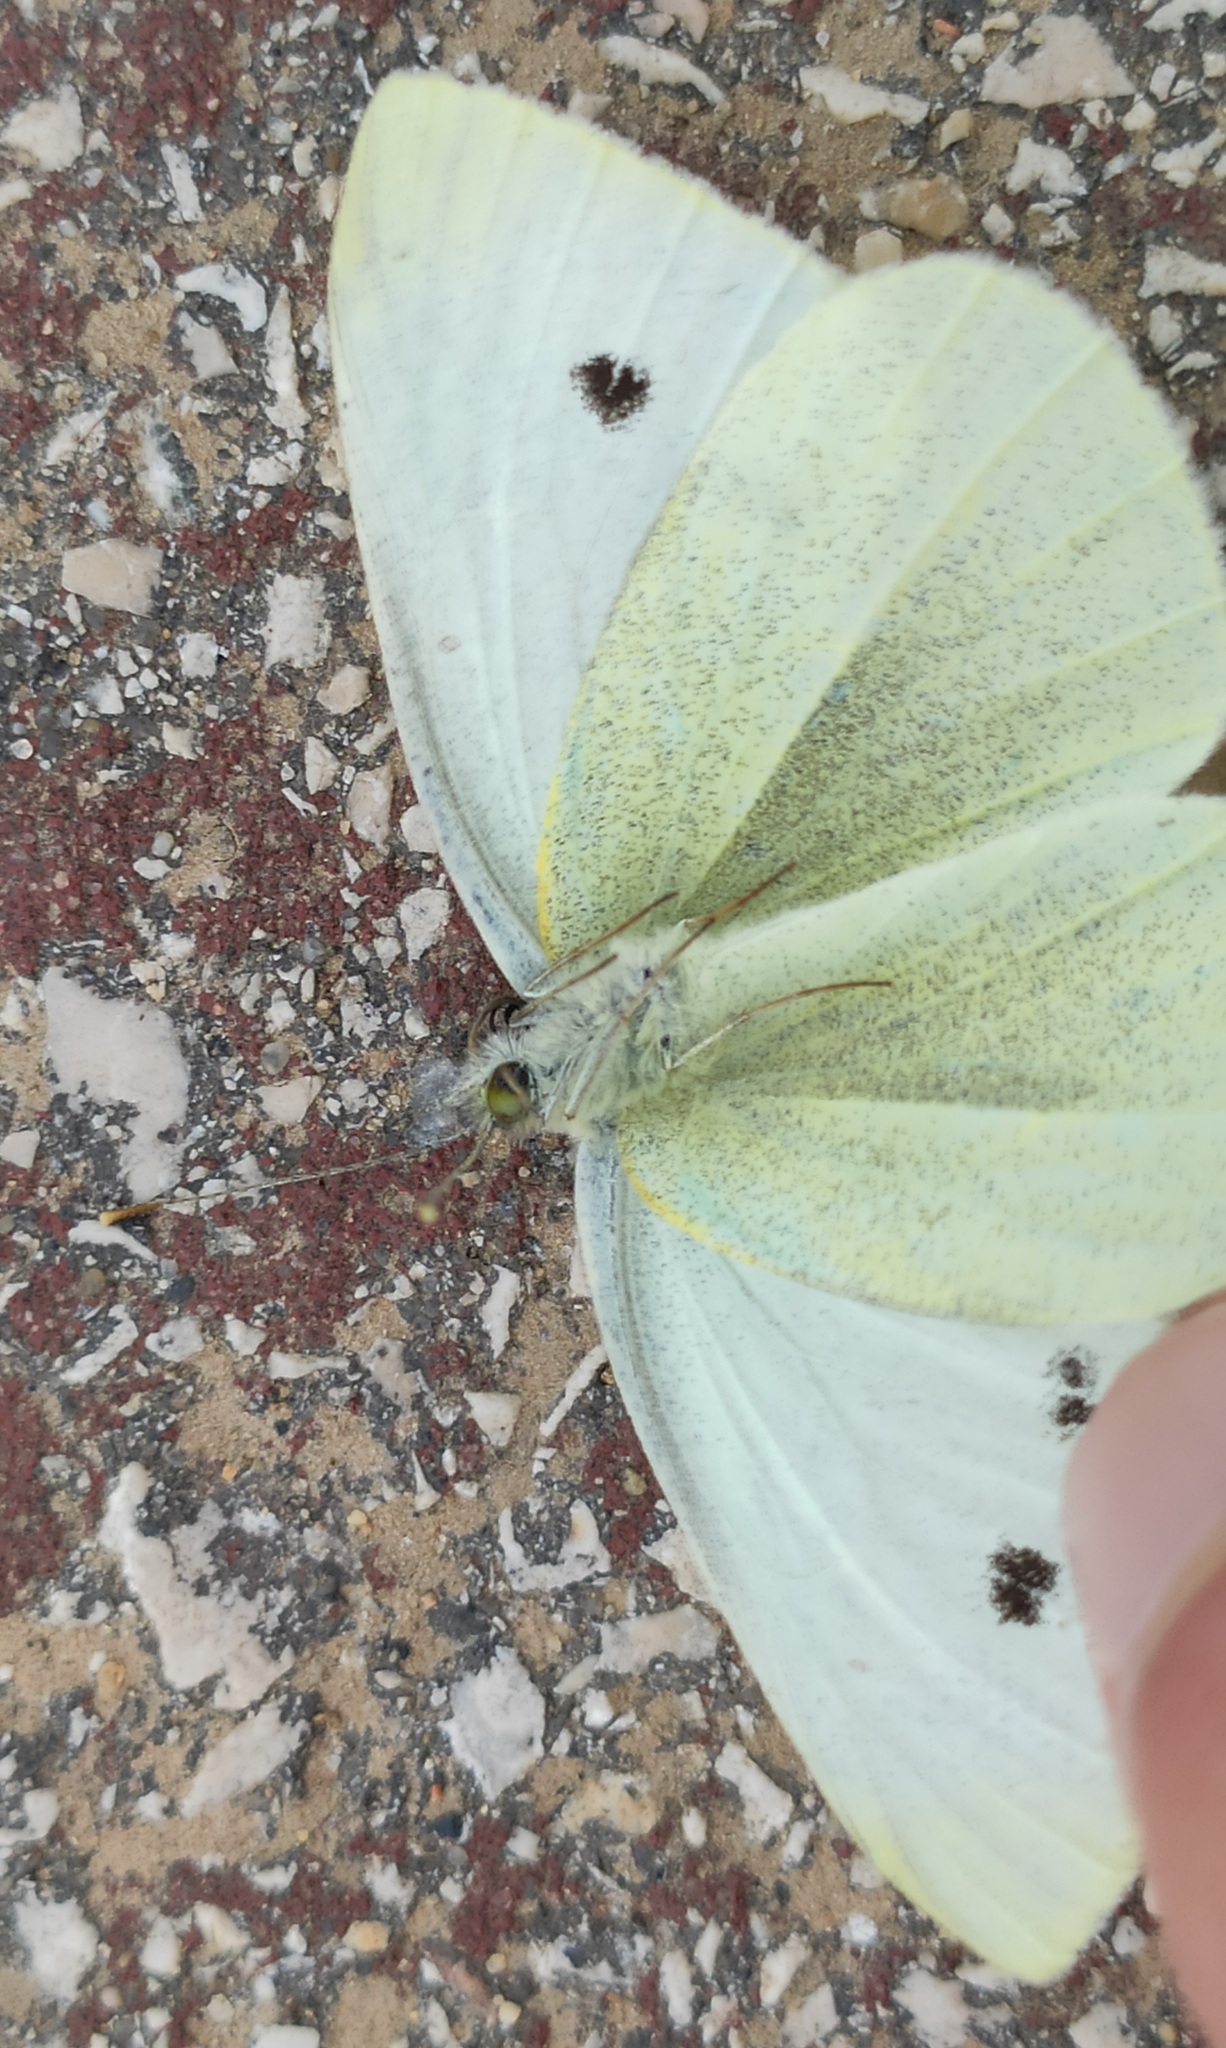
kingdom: Animalia
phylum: Arthropoda
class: Insecta
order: Lepidoptera
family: Pieridae
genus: Pieris
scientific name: Pieris rapae
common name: Small white
